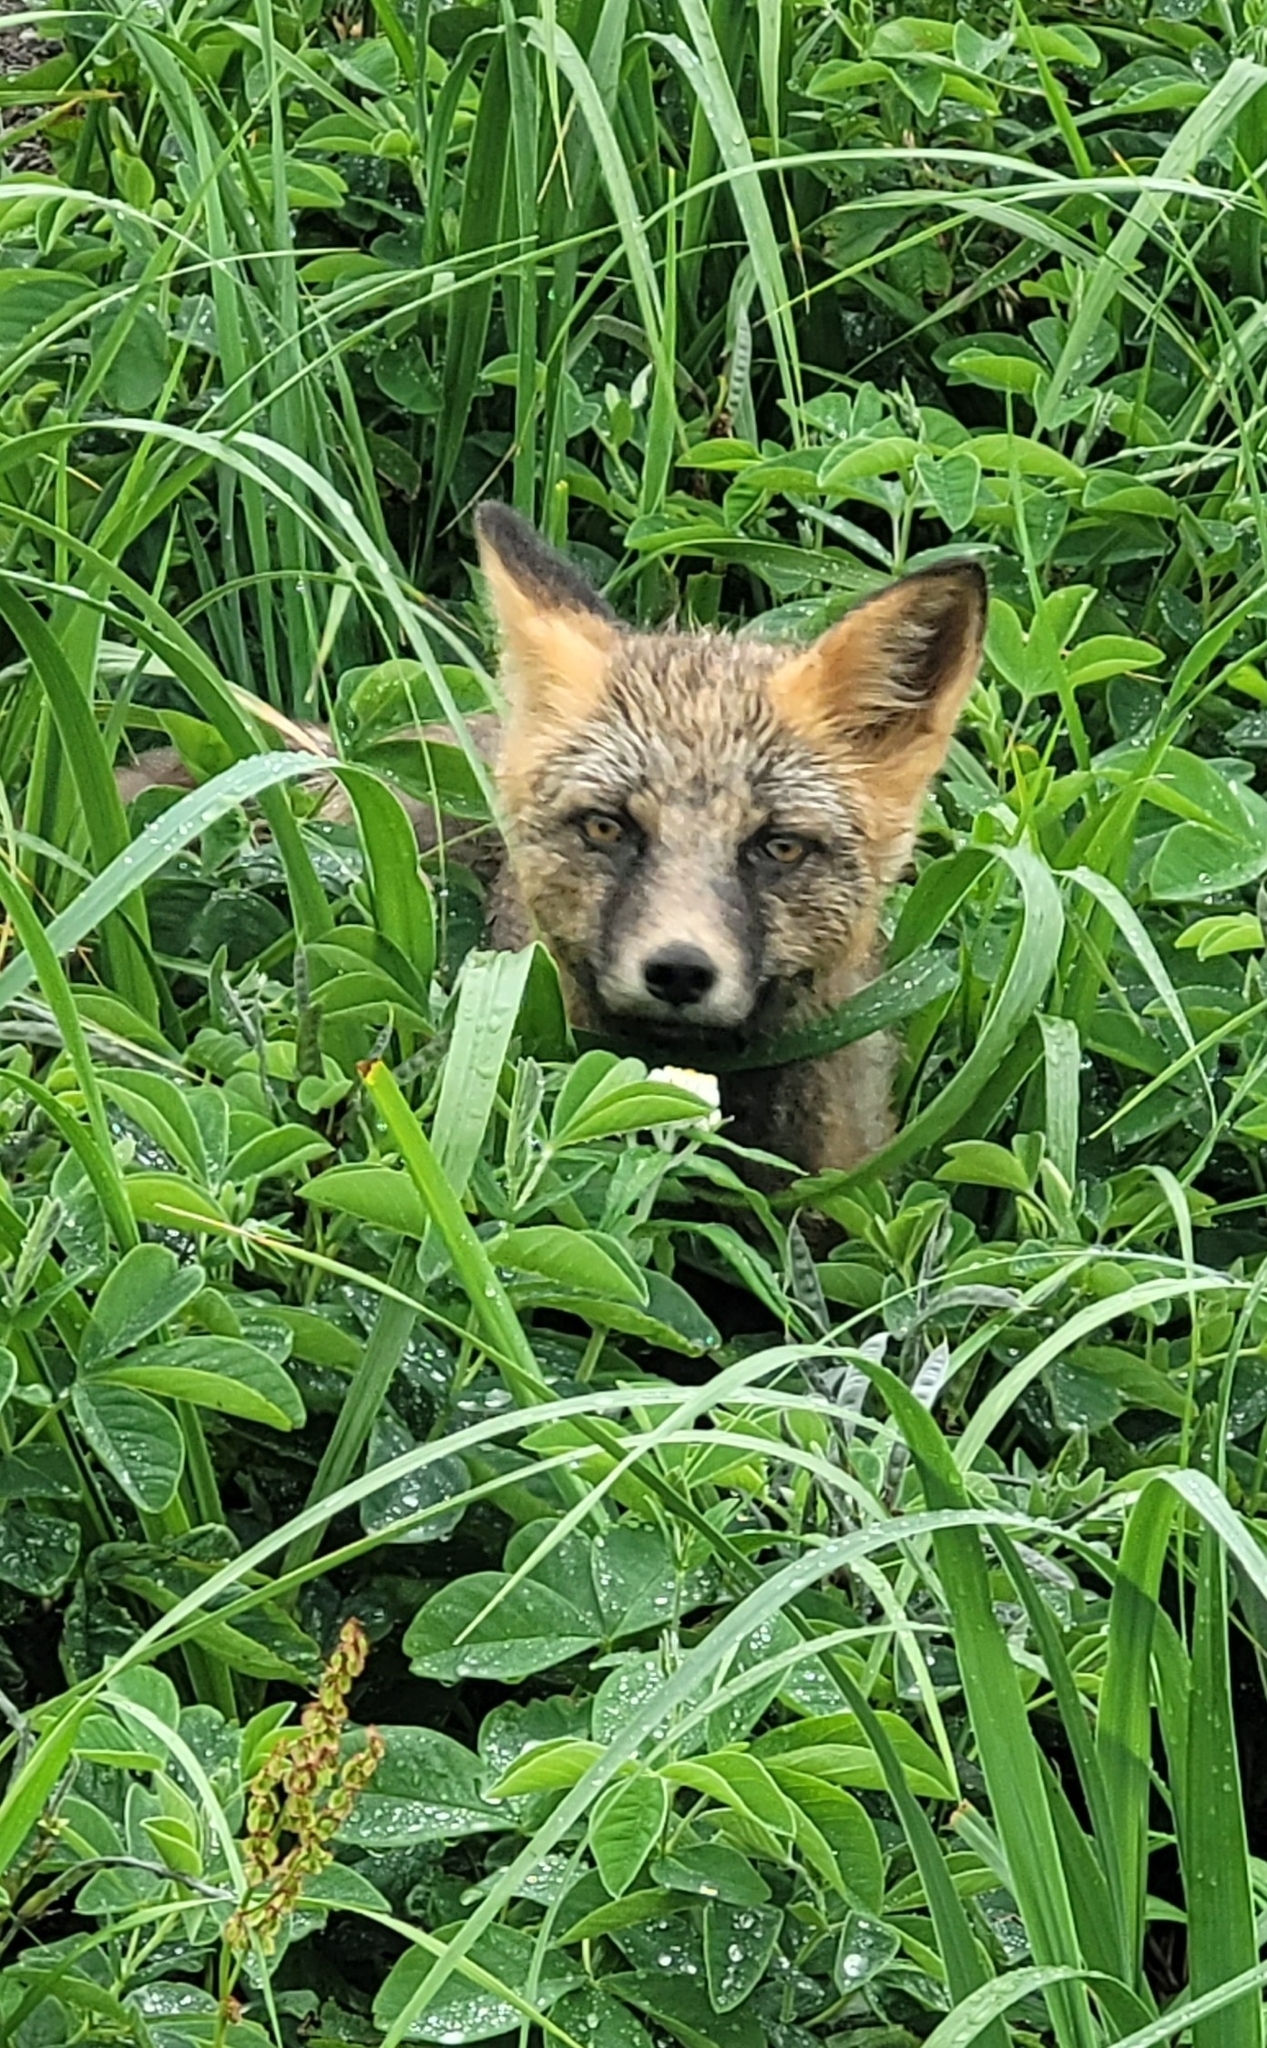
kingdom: Animalia
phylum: Chordata
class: Mammalia
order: Carnivora
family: Canidae
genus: Vulpes
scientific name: Vulpes vulpes
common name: Red fox
